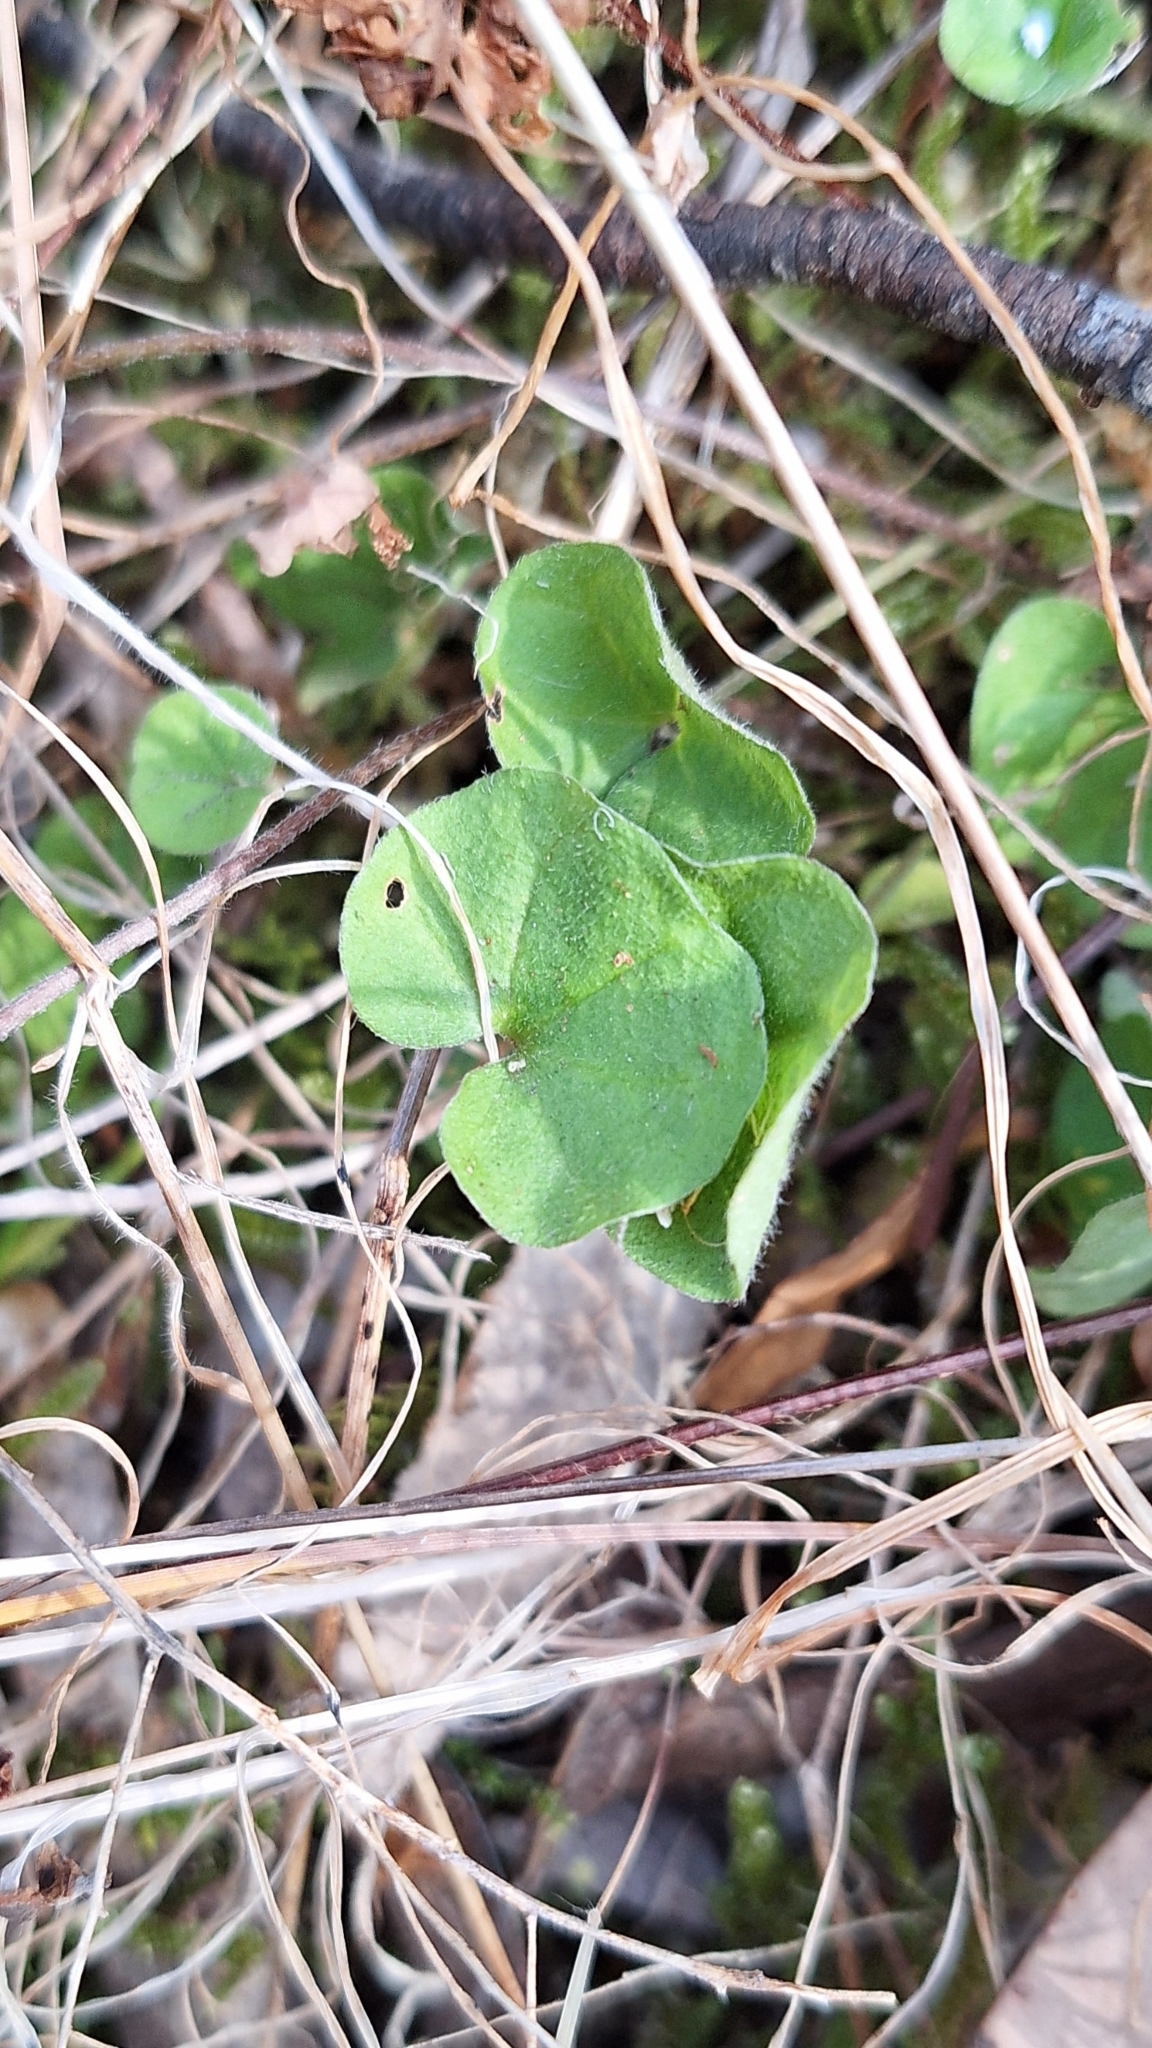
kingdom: Plantae
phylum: Tracheophyta
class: Magnoliopsida
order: Solanales
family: Convolvulaceae
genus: Dichondra
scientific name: Dichondra repens
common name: Kidneyweed
